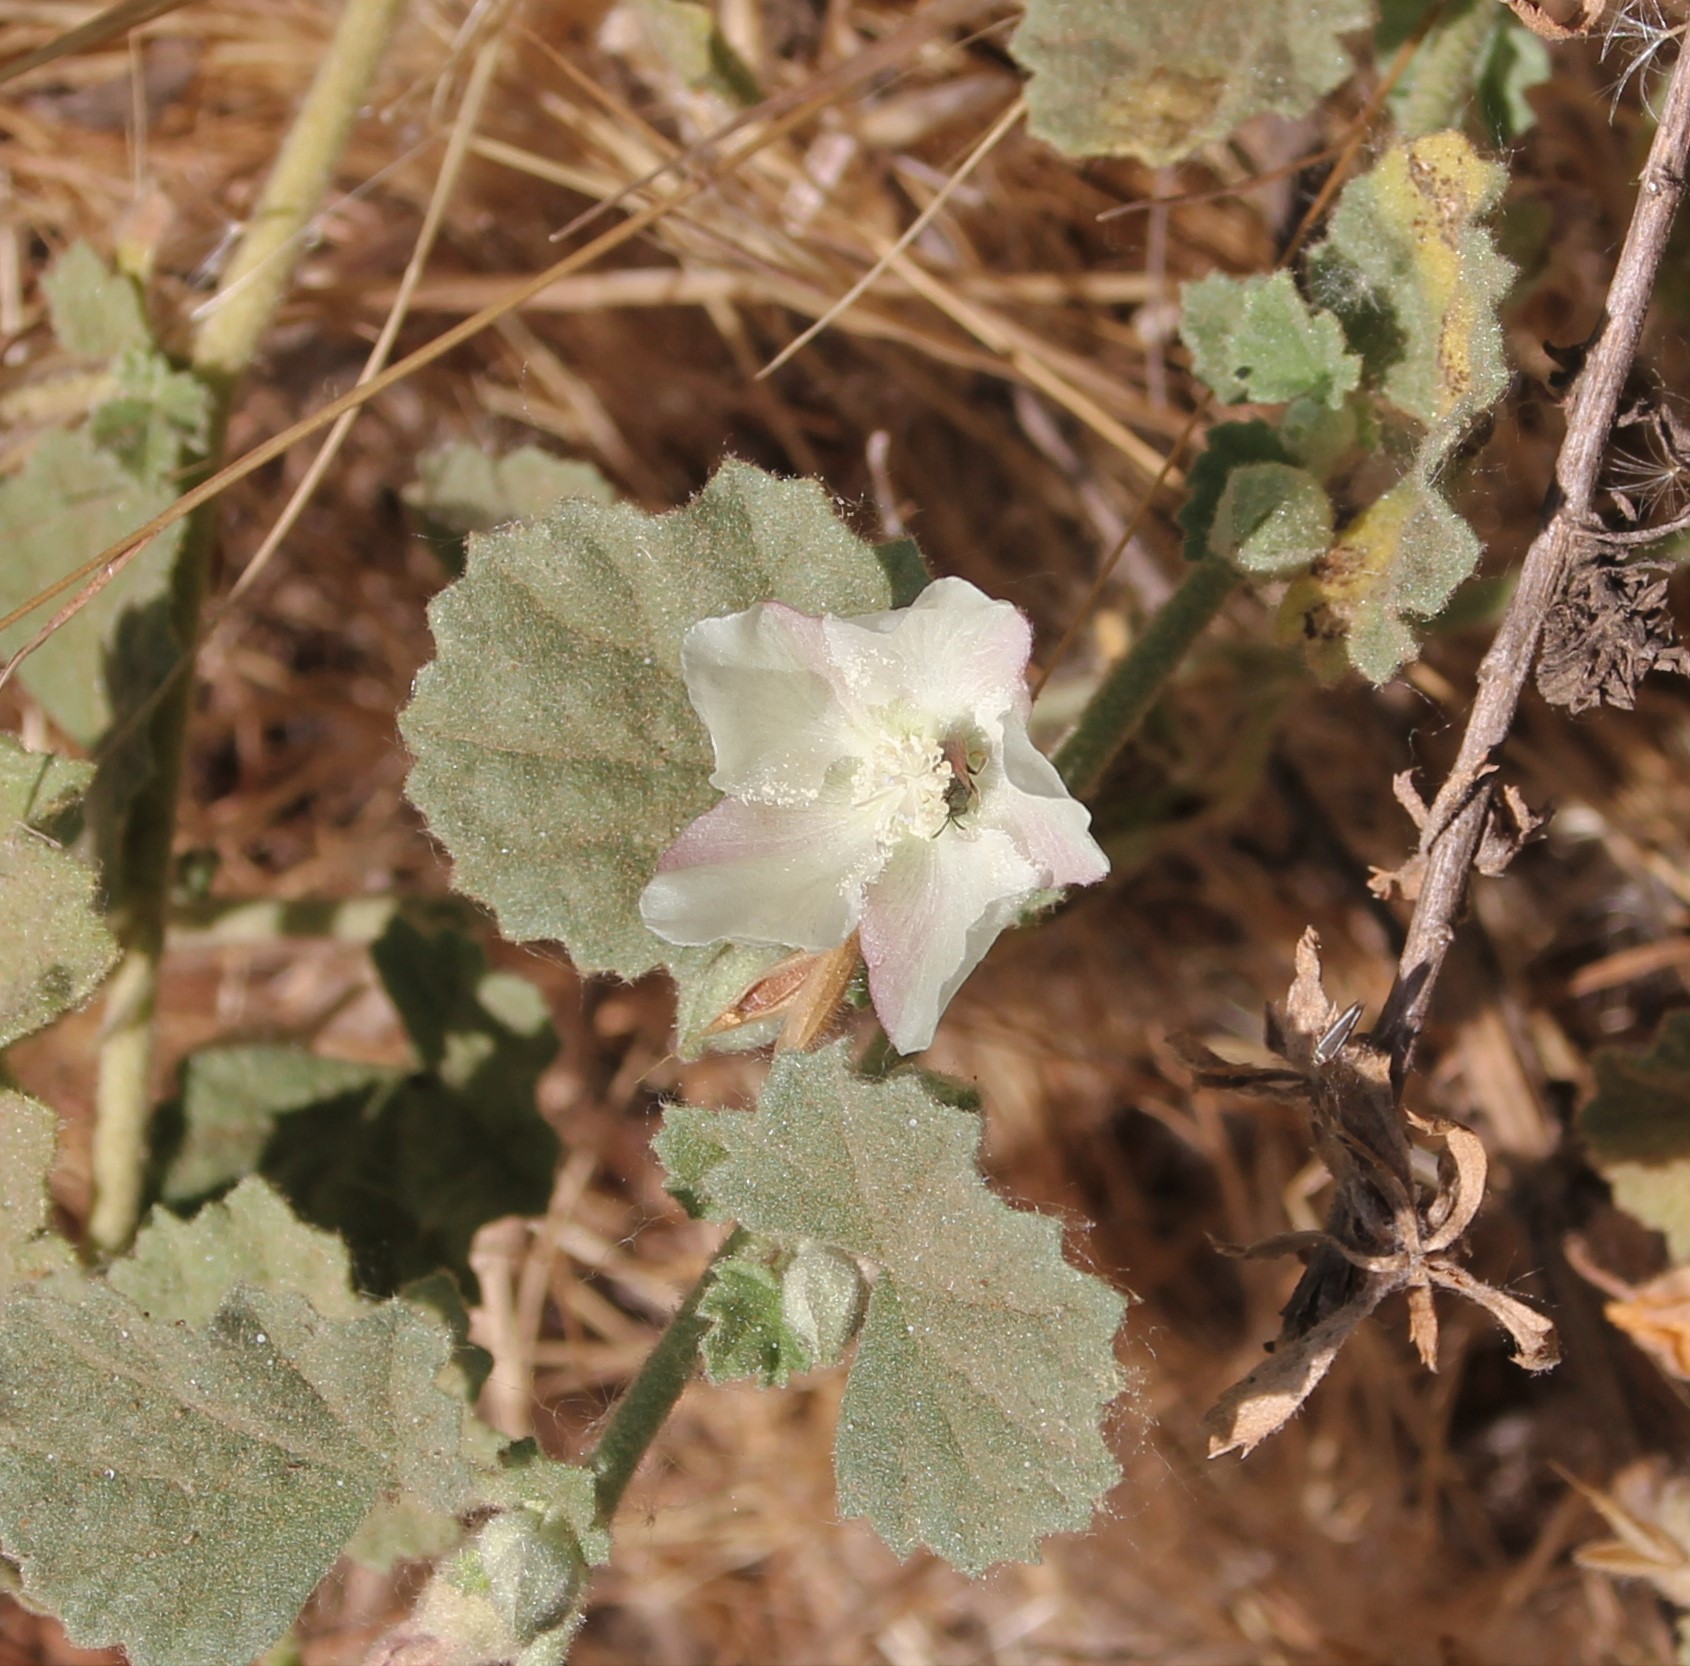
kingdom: Plantae
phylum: Tracheophyta
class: Magnoliopsida
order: Malvales
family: Malvaceae
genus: Malvella
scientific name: Malvella leprosa
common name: Alkali-mallow
